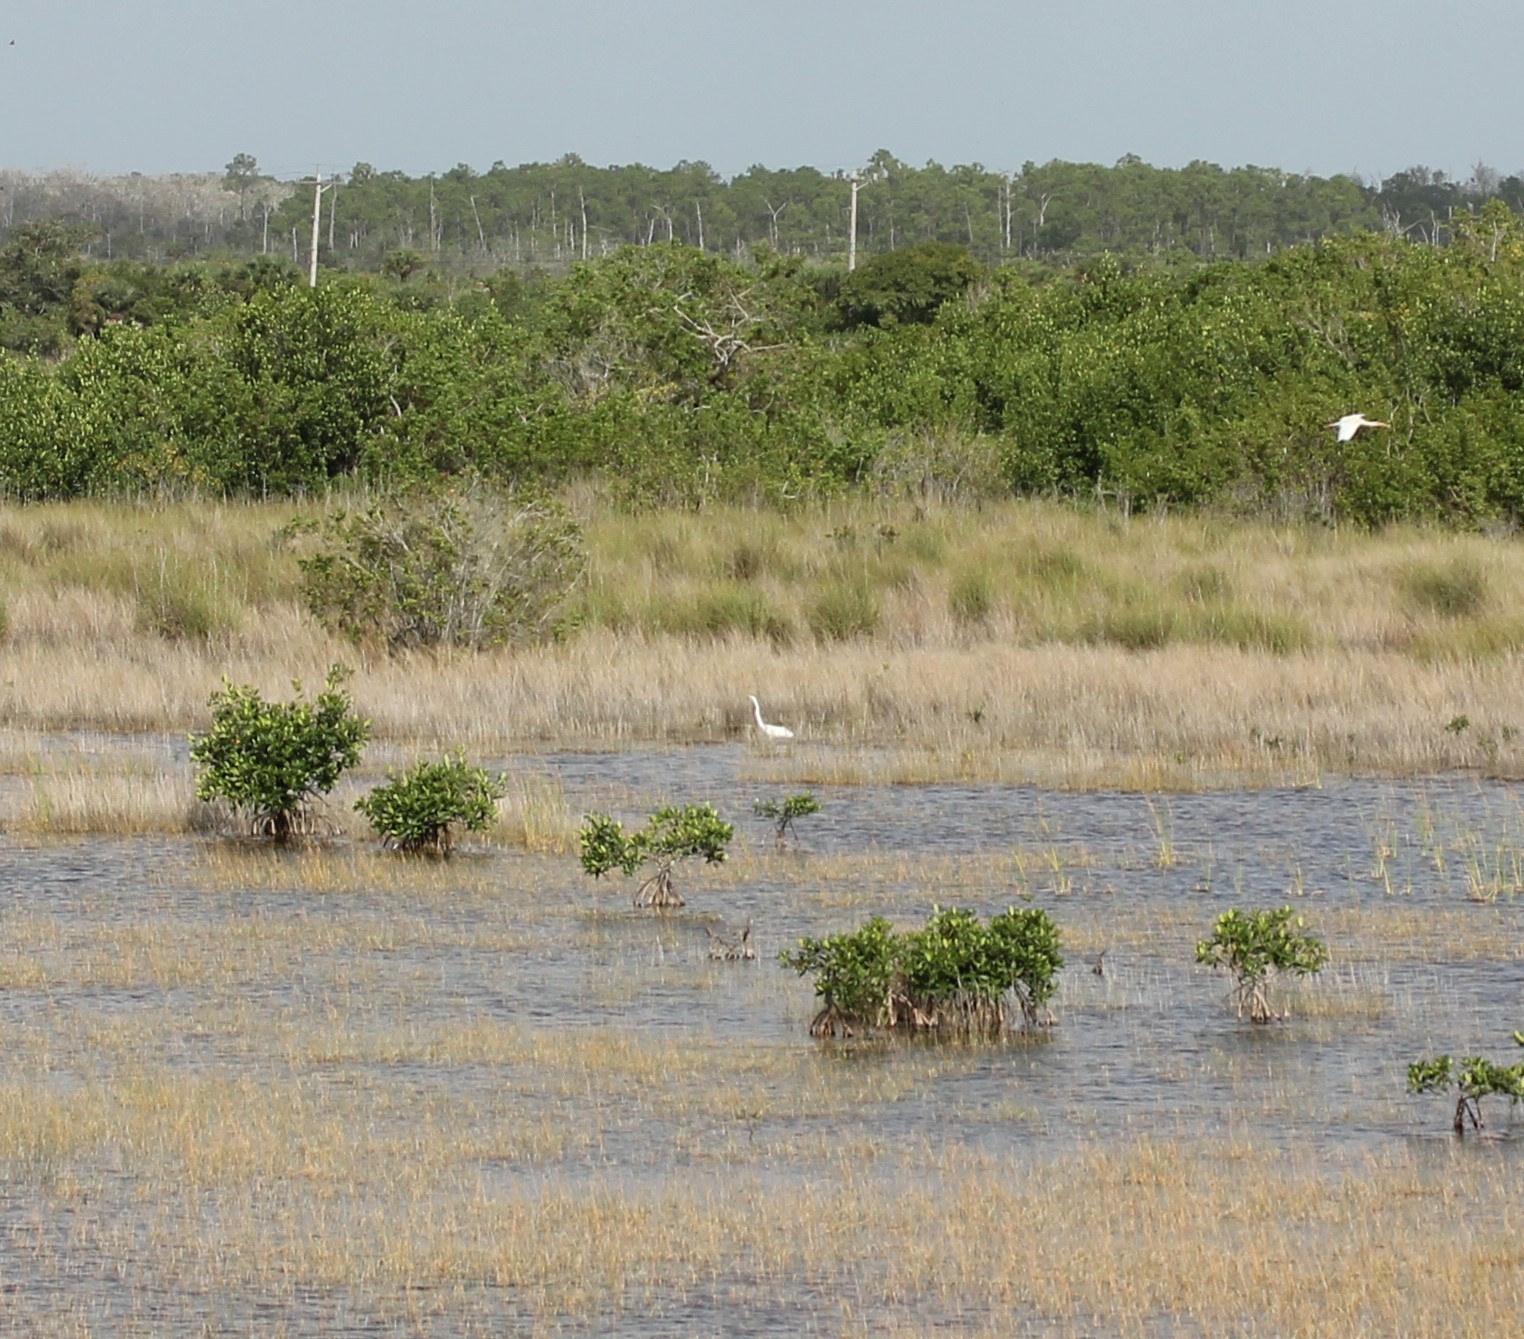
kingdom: Animalia
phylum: Chordata
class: Aves
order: Pelecaniformes
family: Ardeidae
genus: Ardea
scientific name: Ardea alba
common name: Great egret
